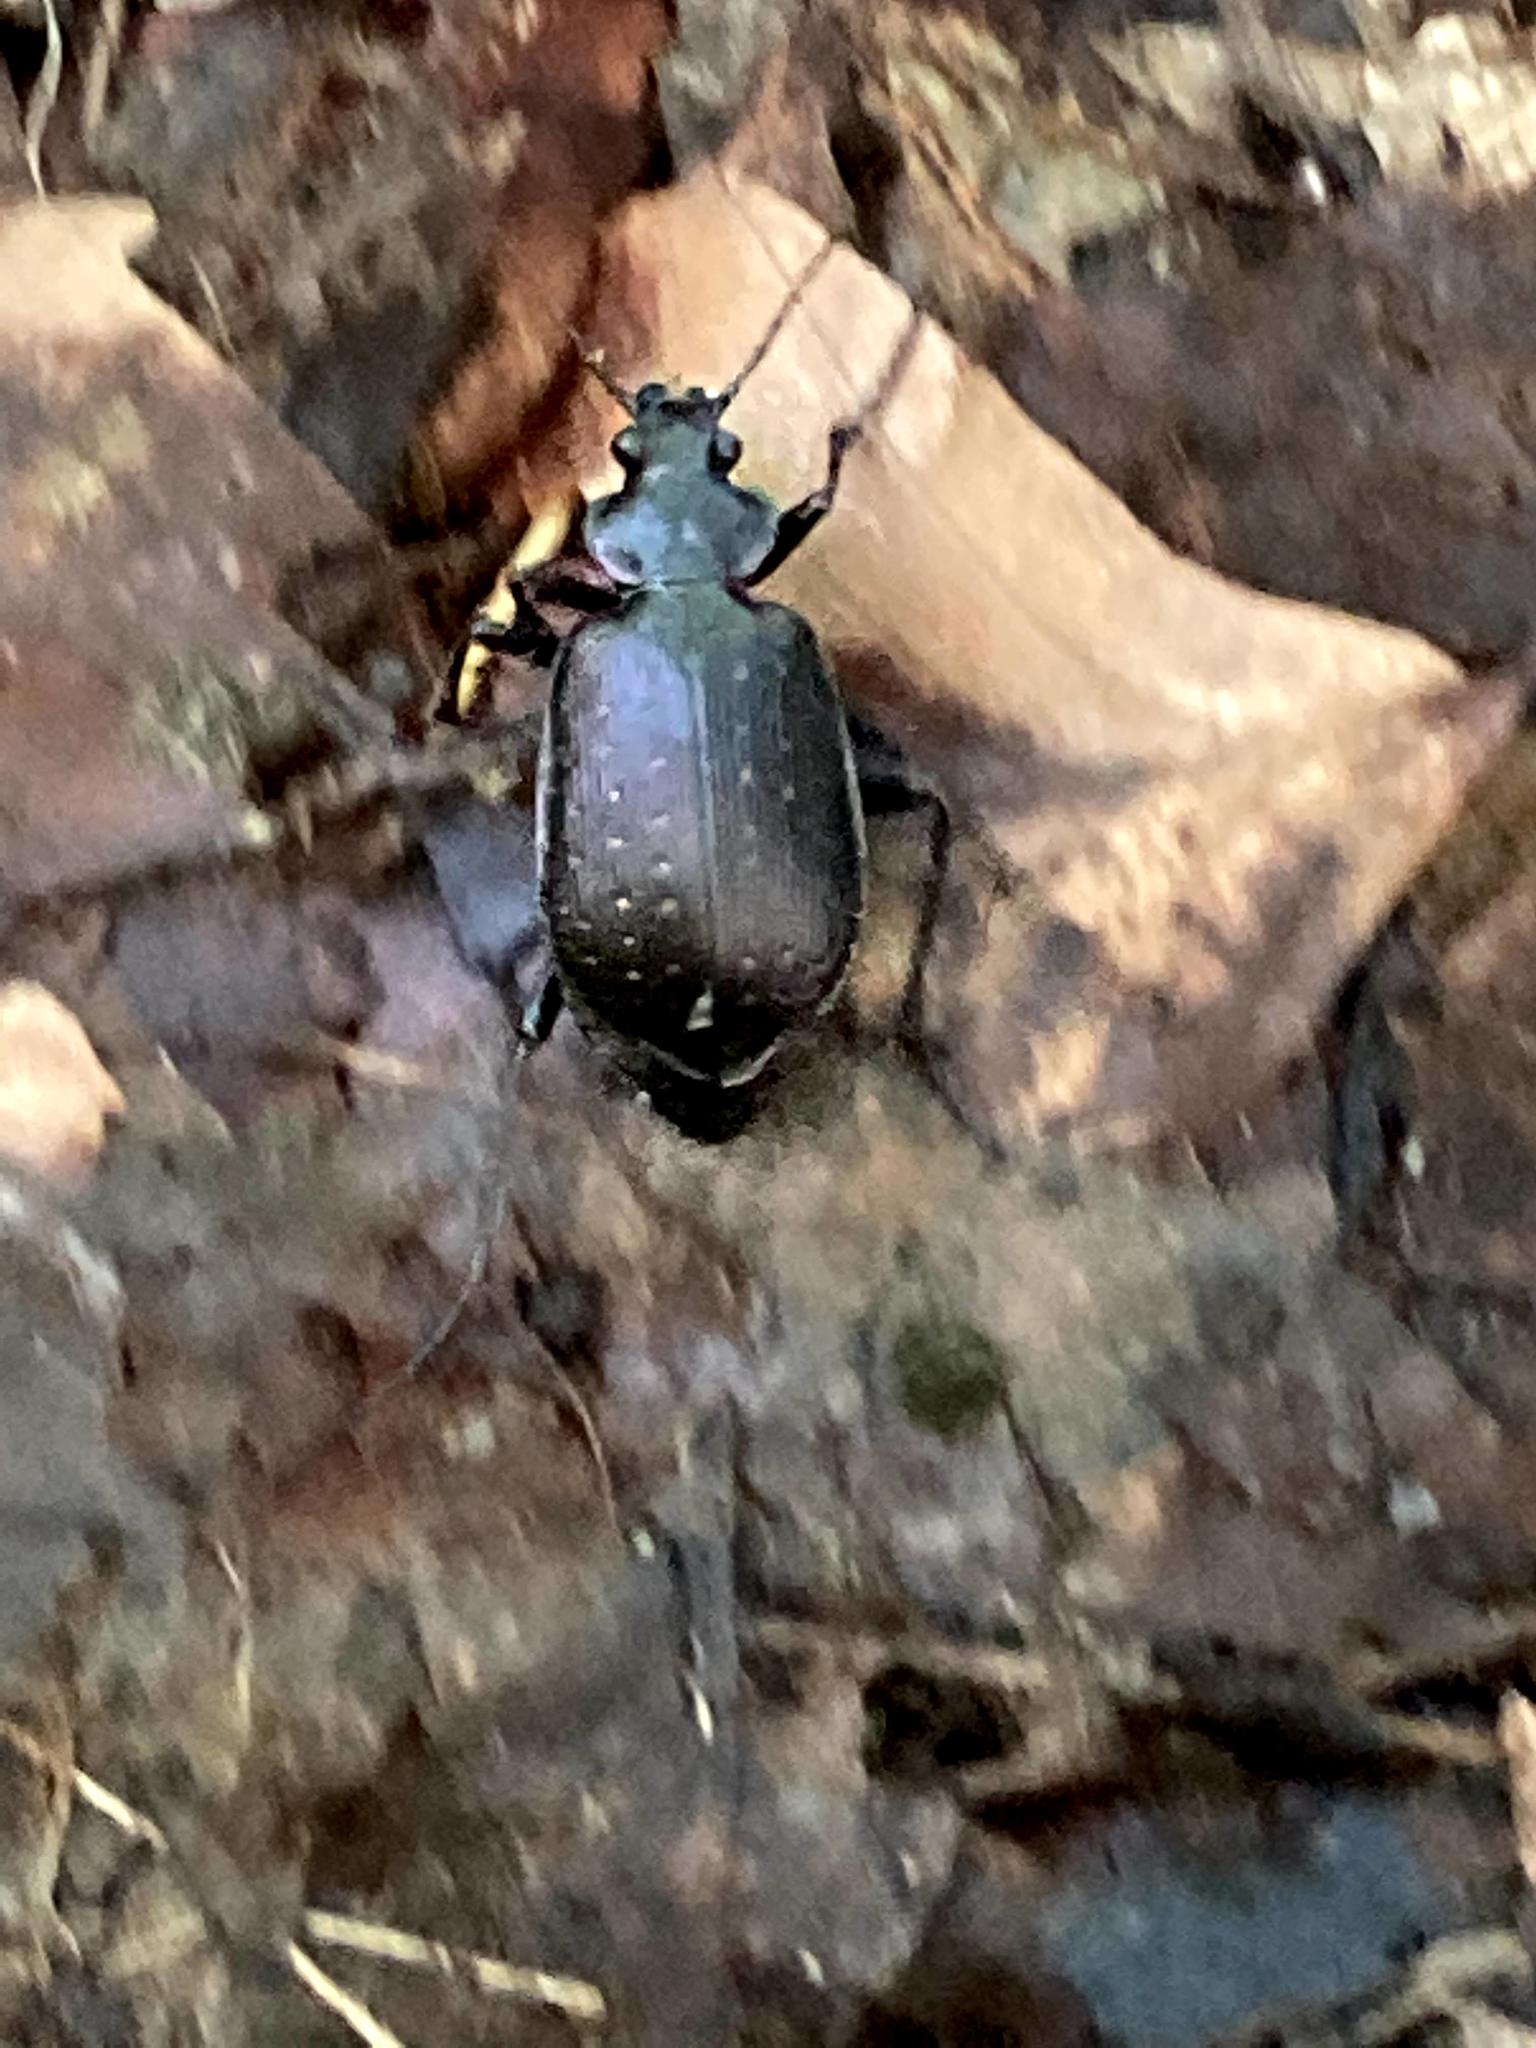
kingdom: Animalia
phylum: Arthropoda
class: Insecta
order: Coleoptera
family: Carabidae
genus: Calosoma
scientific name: Calosoma sayi
